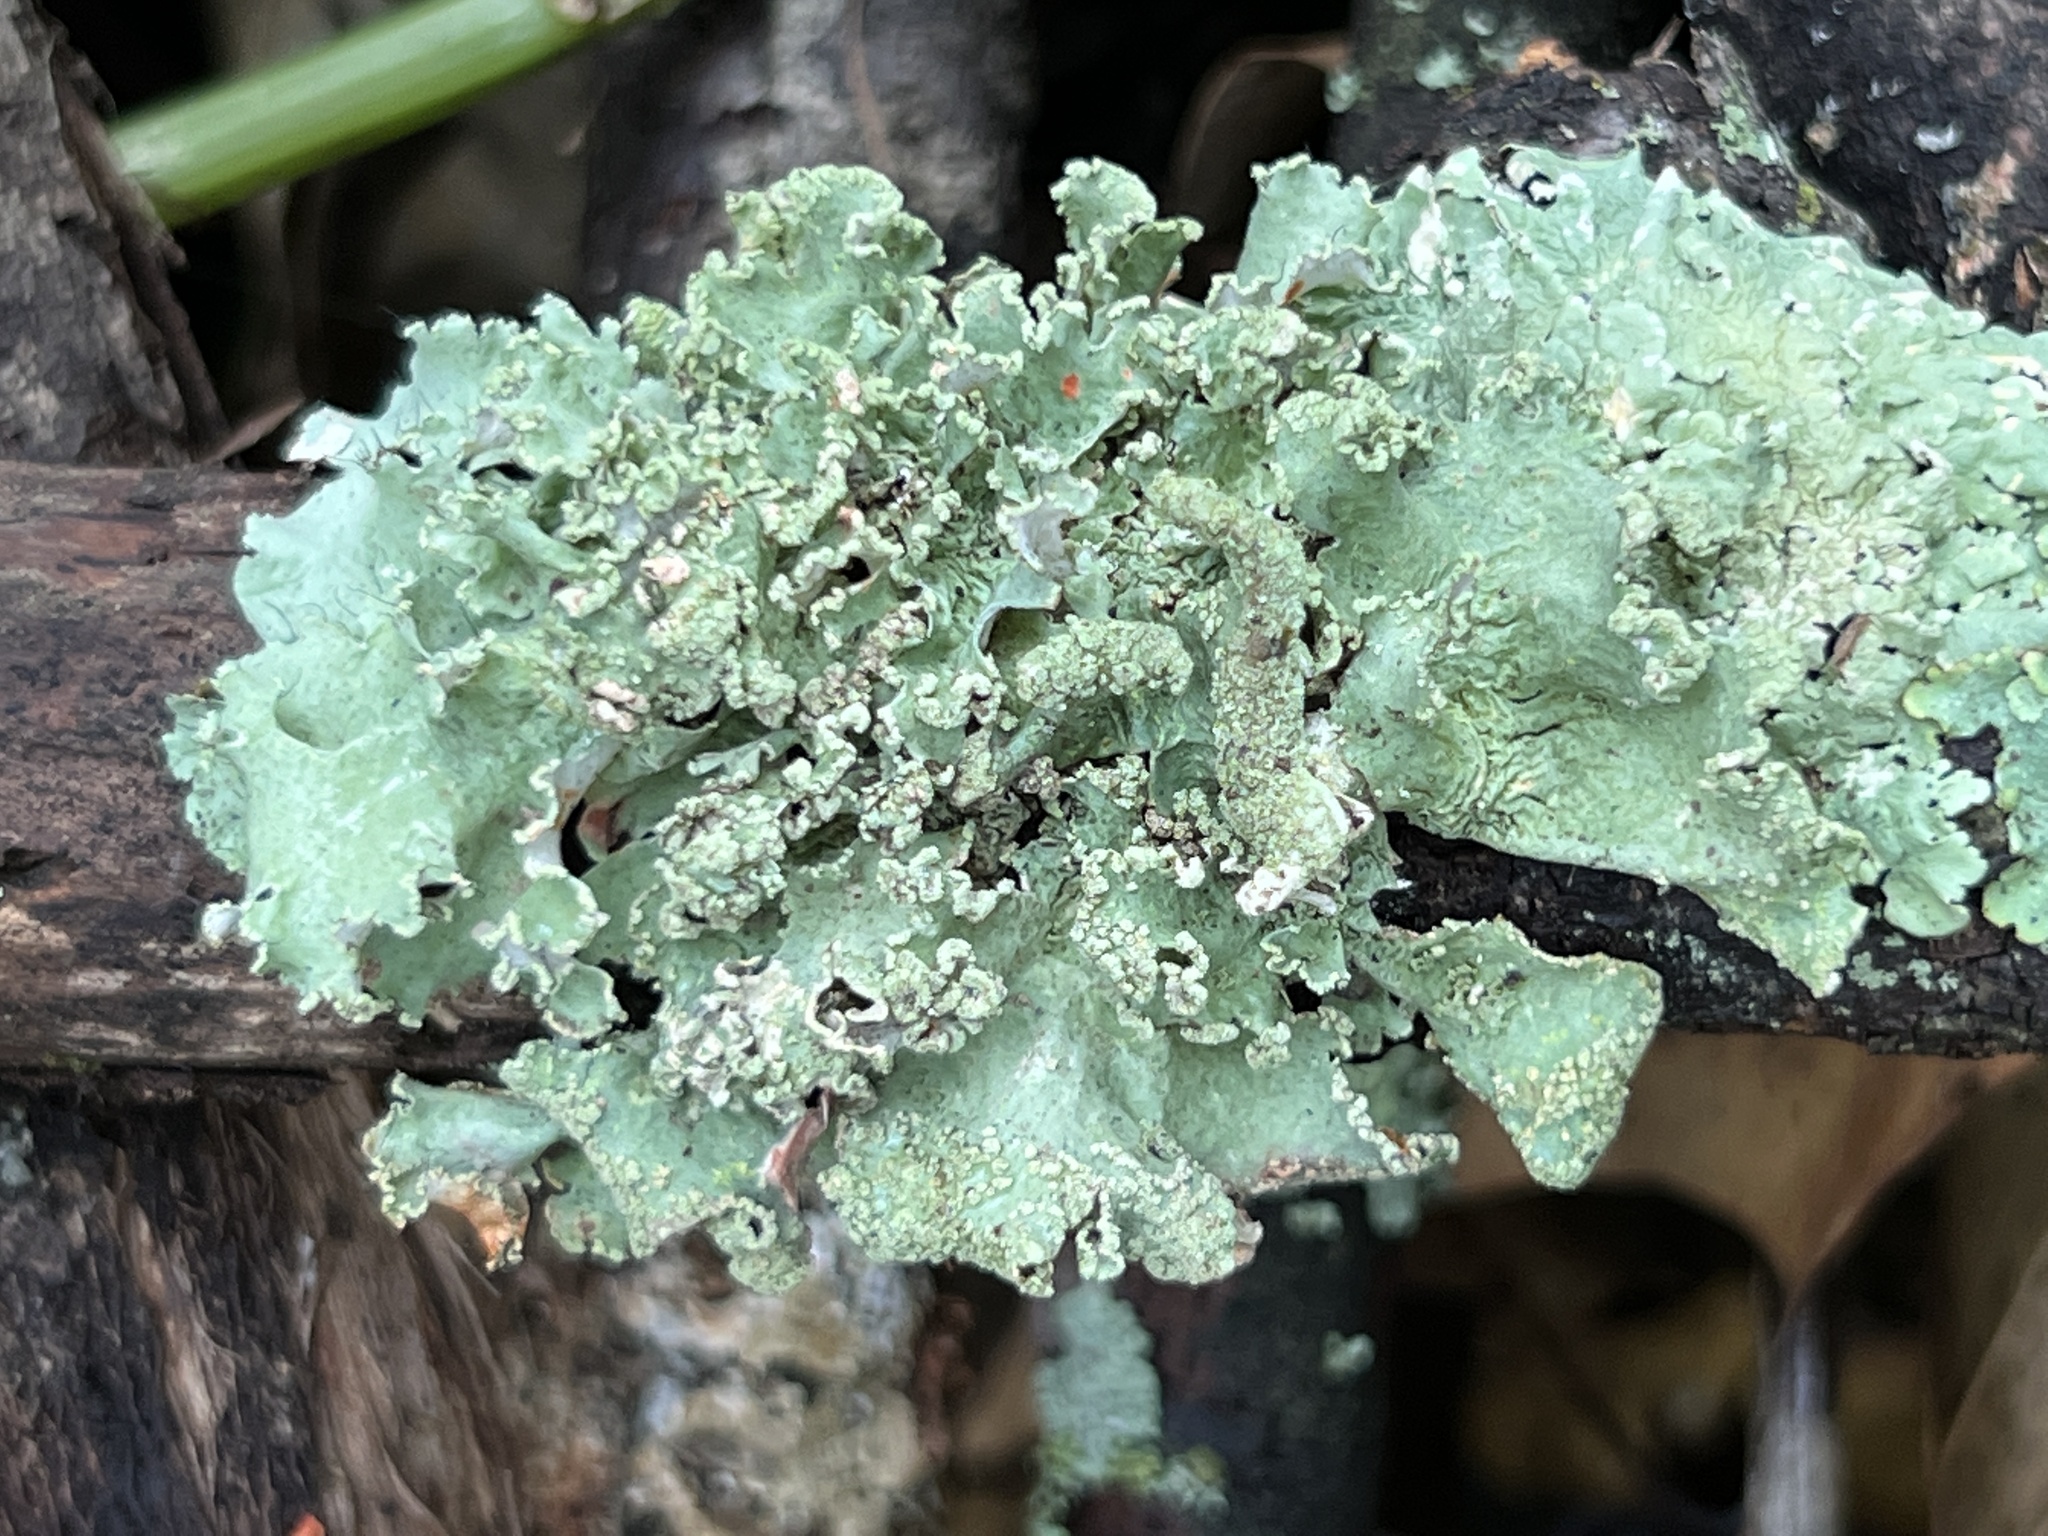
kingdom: Fungi
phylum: Ascomycota
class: Lecanoromycetes
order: Lecanorales
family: Parmeliaceae
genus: Parmotrema
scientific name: Parmotrema hypotropum
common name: Powdered ruffle lichen
